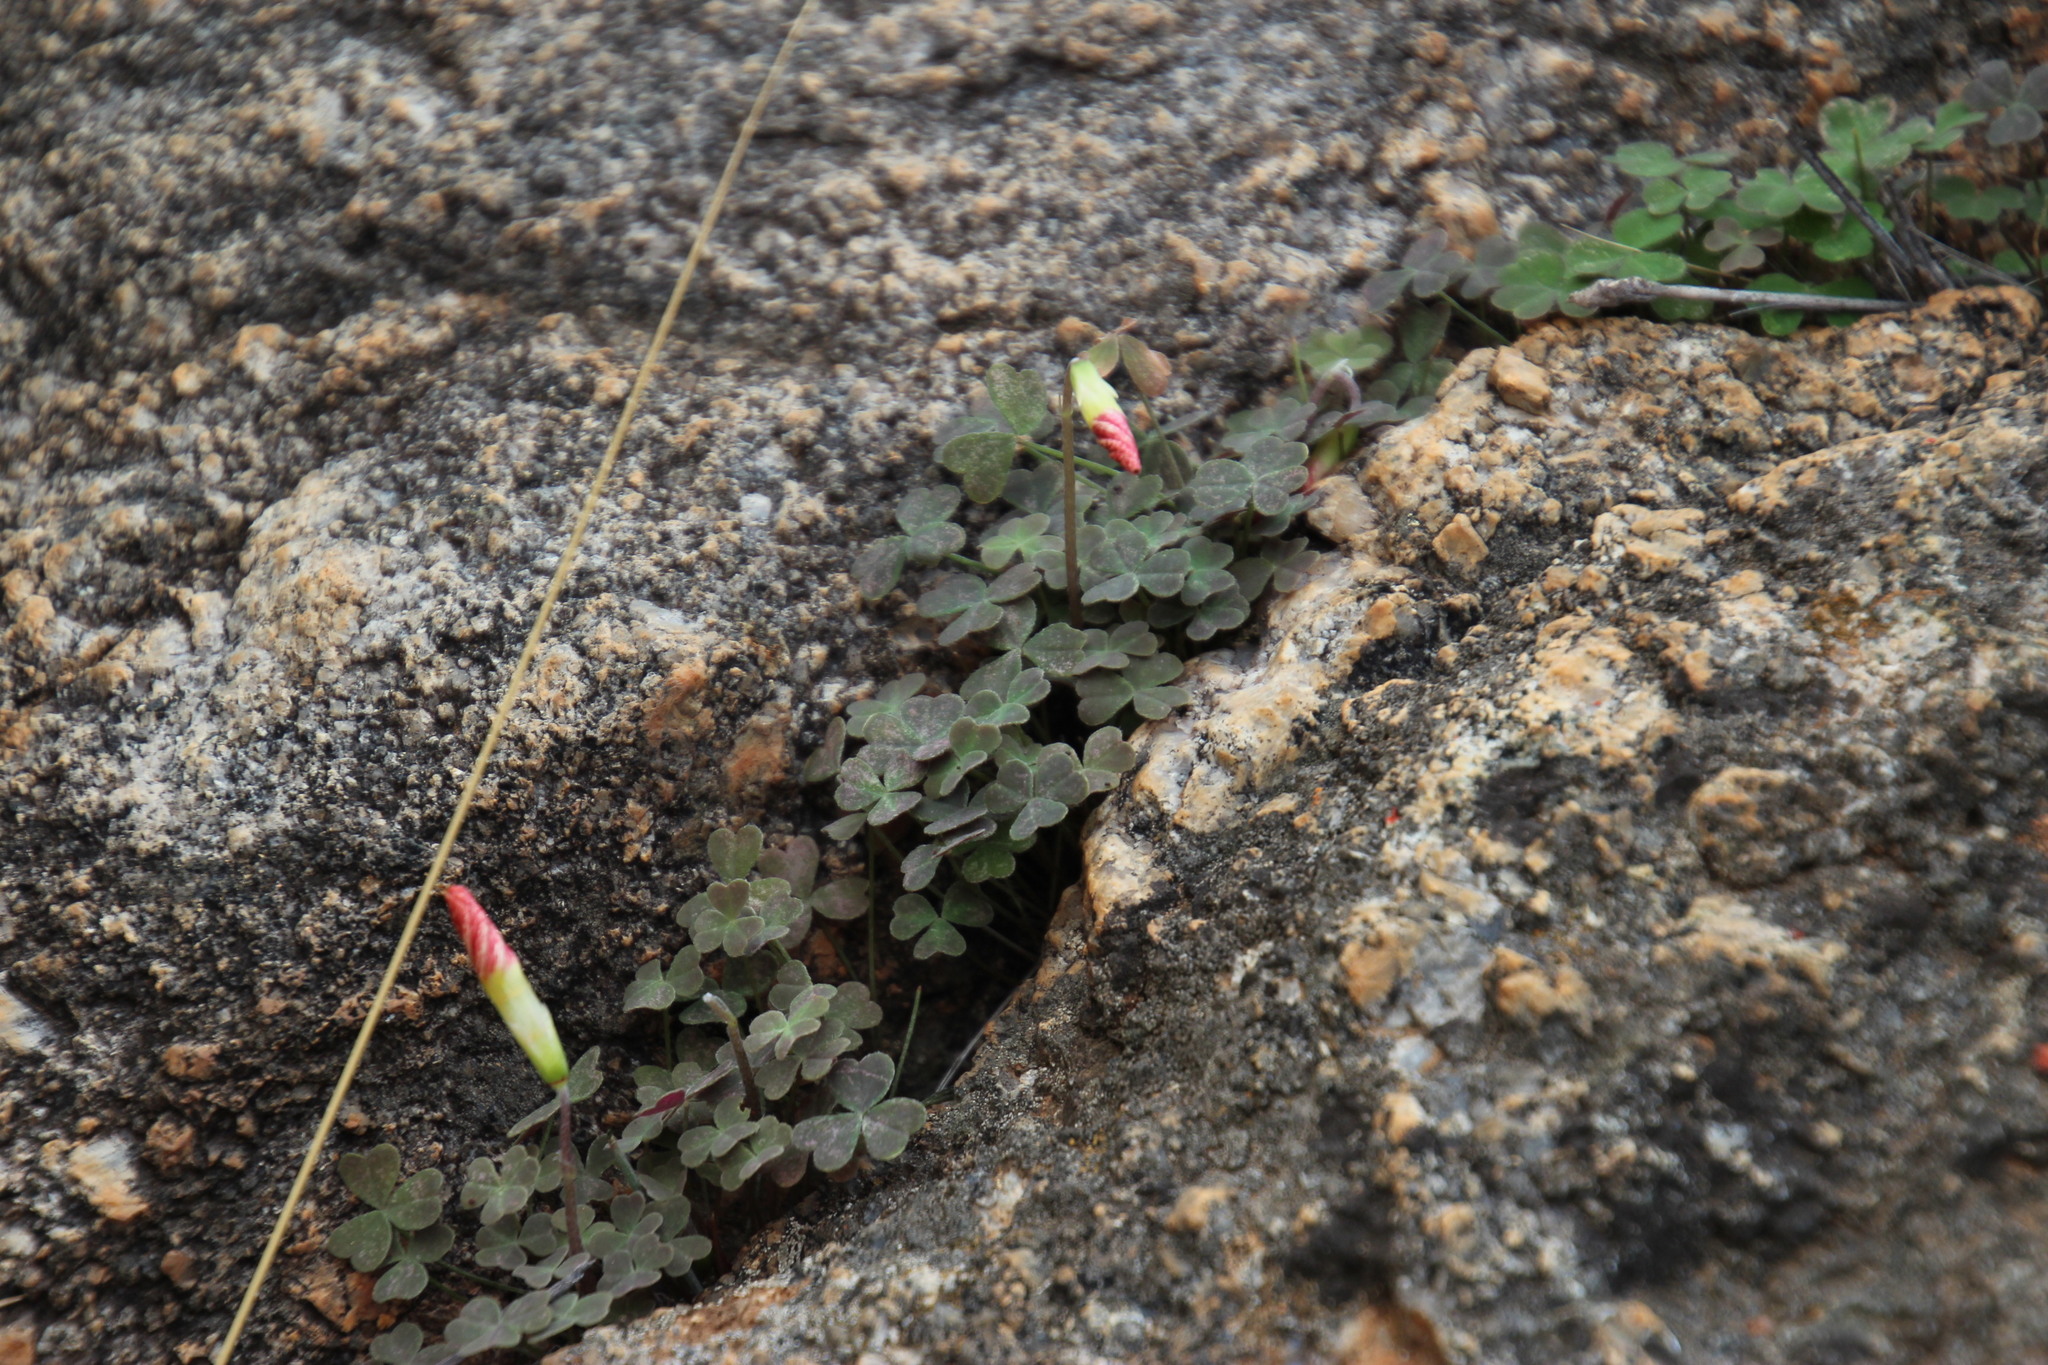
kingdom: Plantae
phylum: Tracheophyta
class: Magnoliopsida
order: Oxalidales
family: Oxalidaceae
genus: Oxalis
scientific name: Oxalis obtusa
